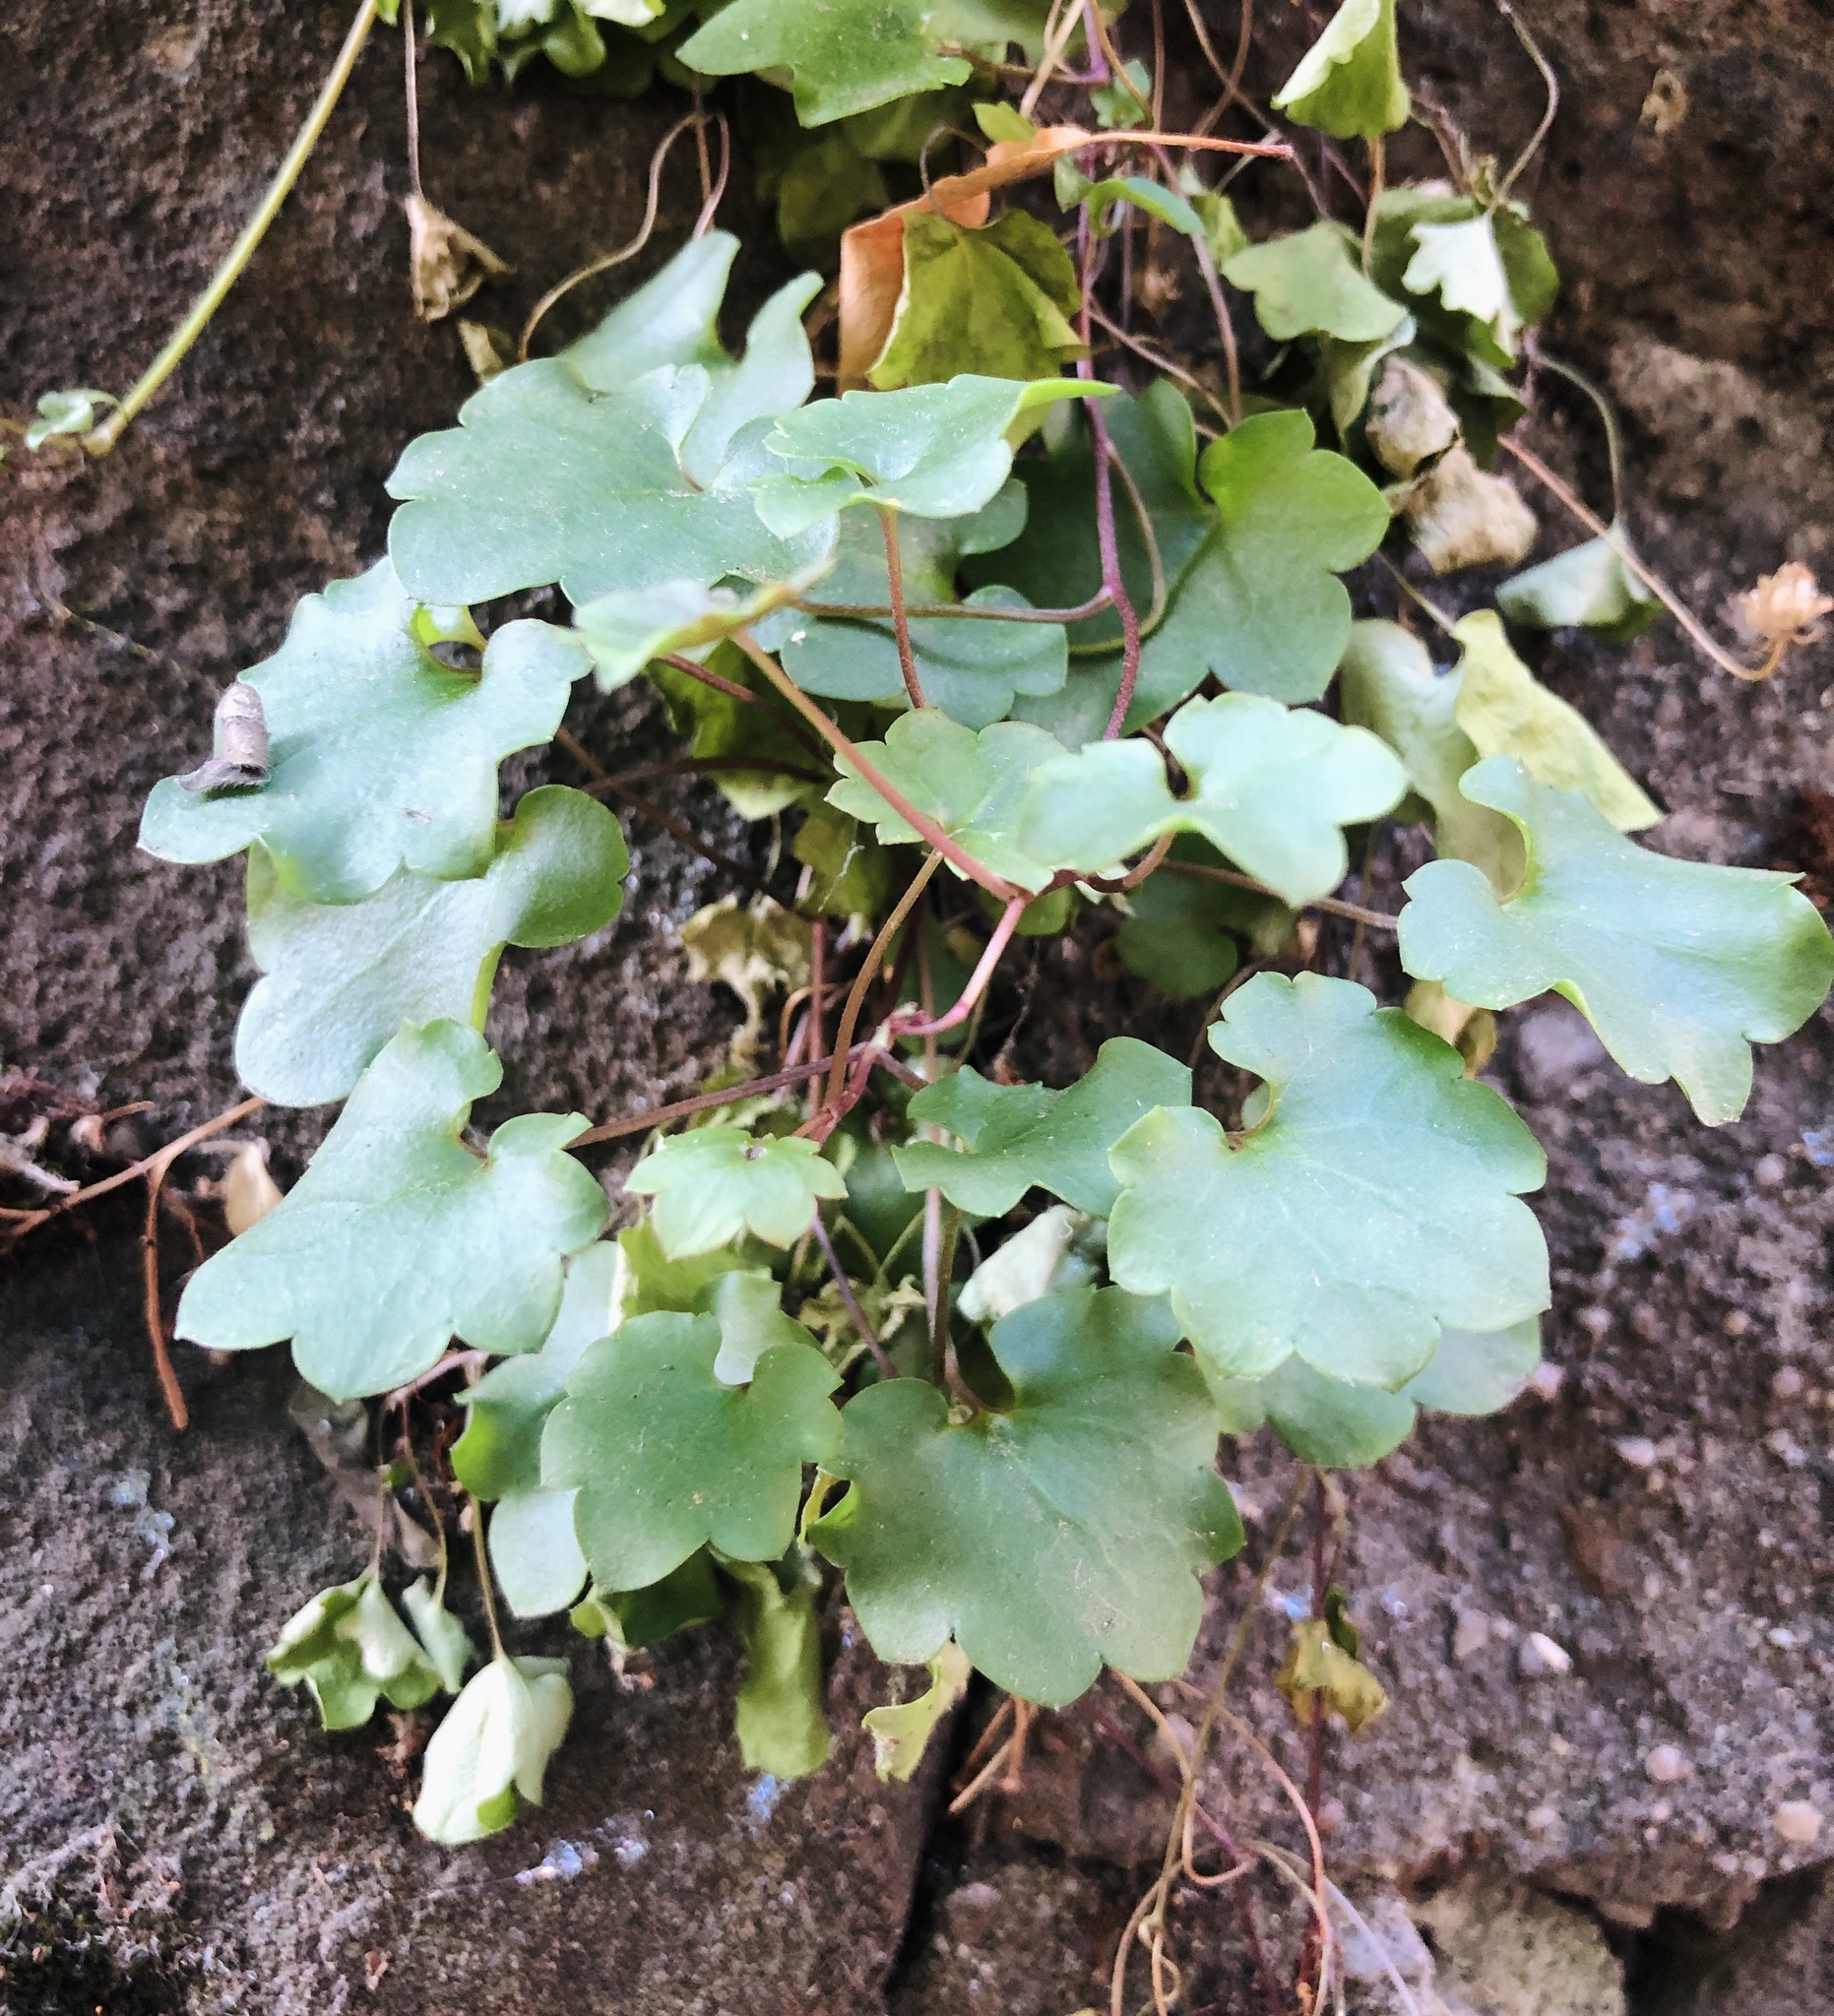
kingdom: Plantae
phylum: Tracheophyta
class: Magnoliopsida
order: Lamiales
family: Plantaginaceae
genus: Cymbalaria
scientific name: Cymbalaria muralis
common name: Ivy-leaved toadflax
